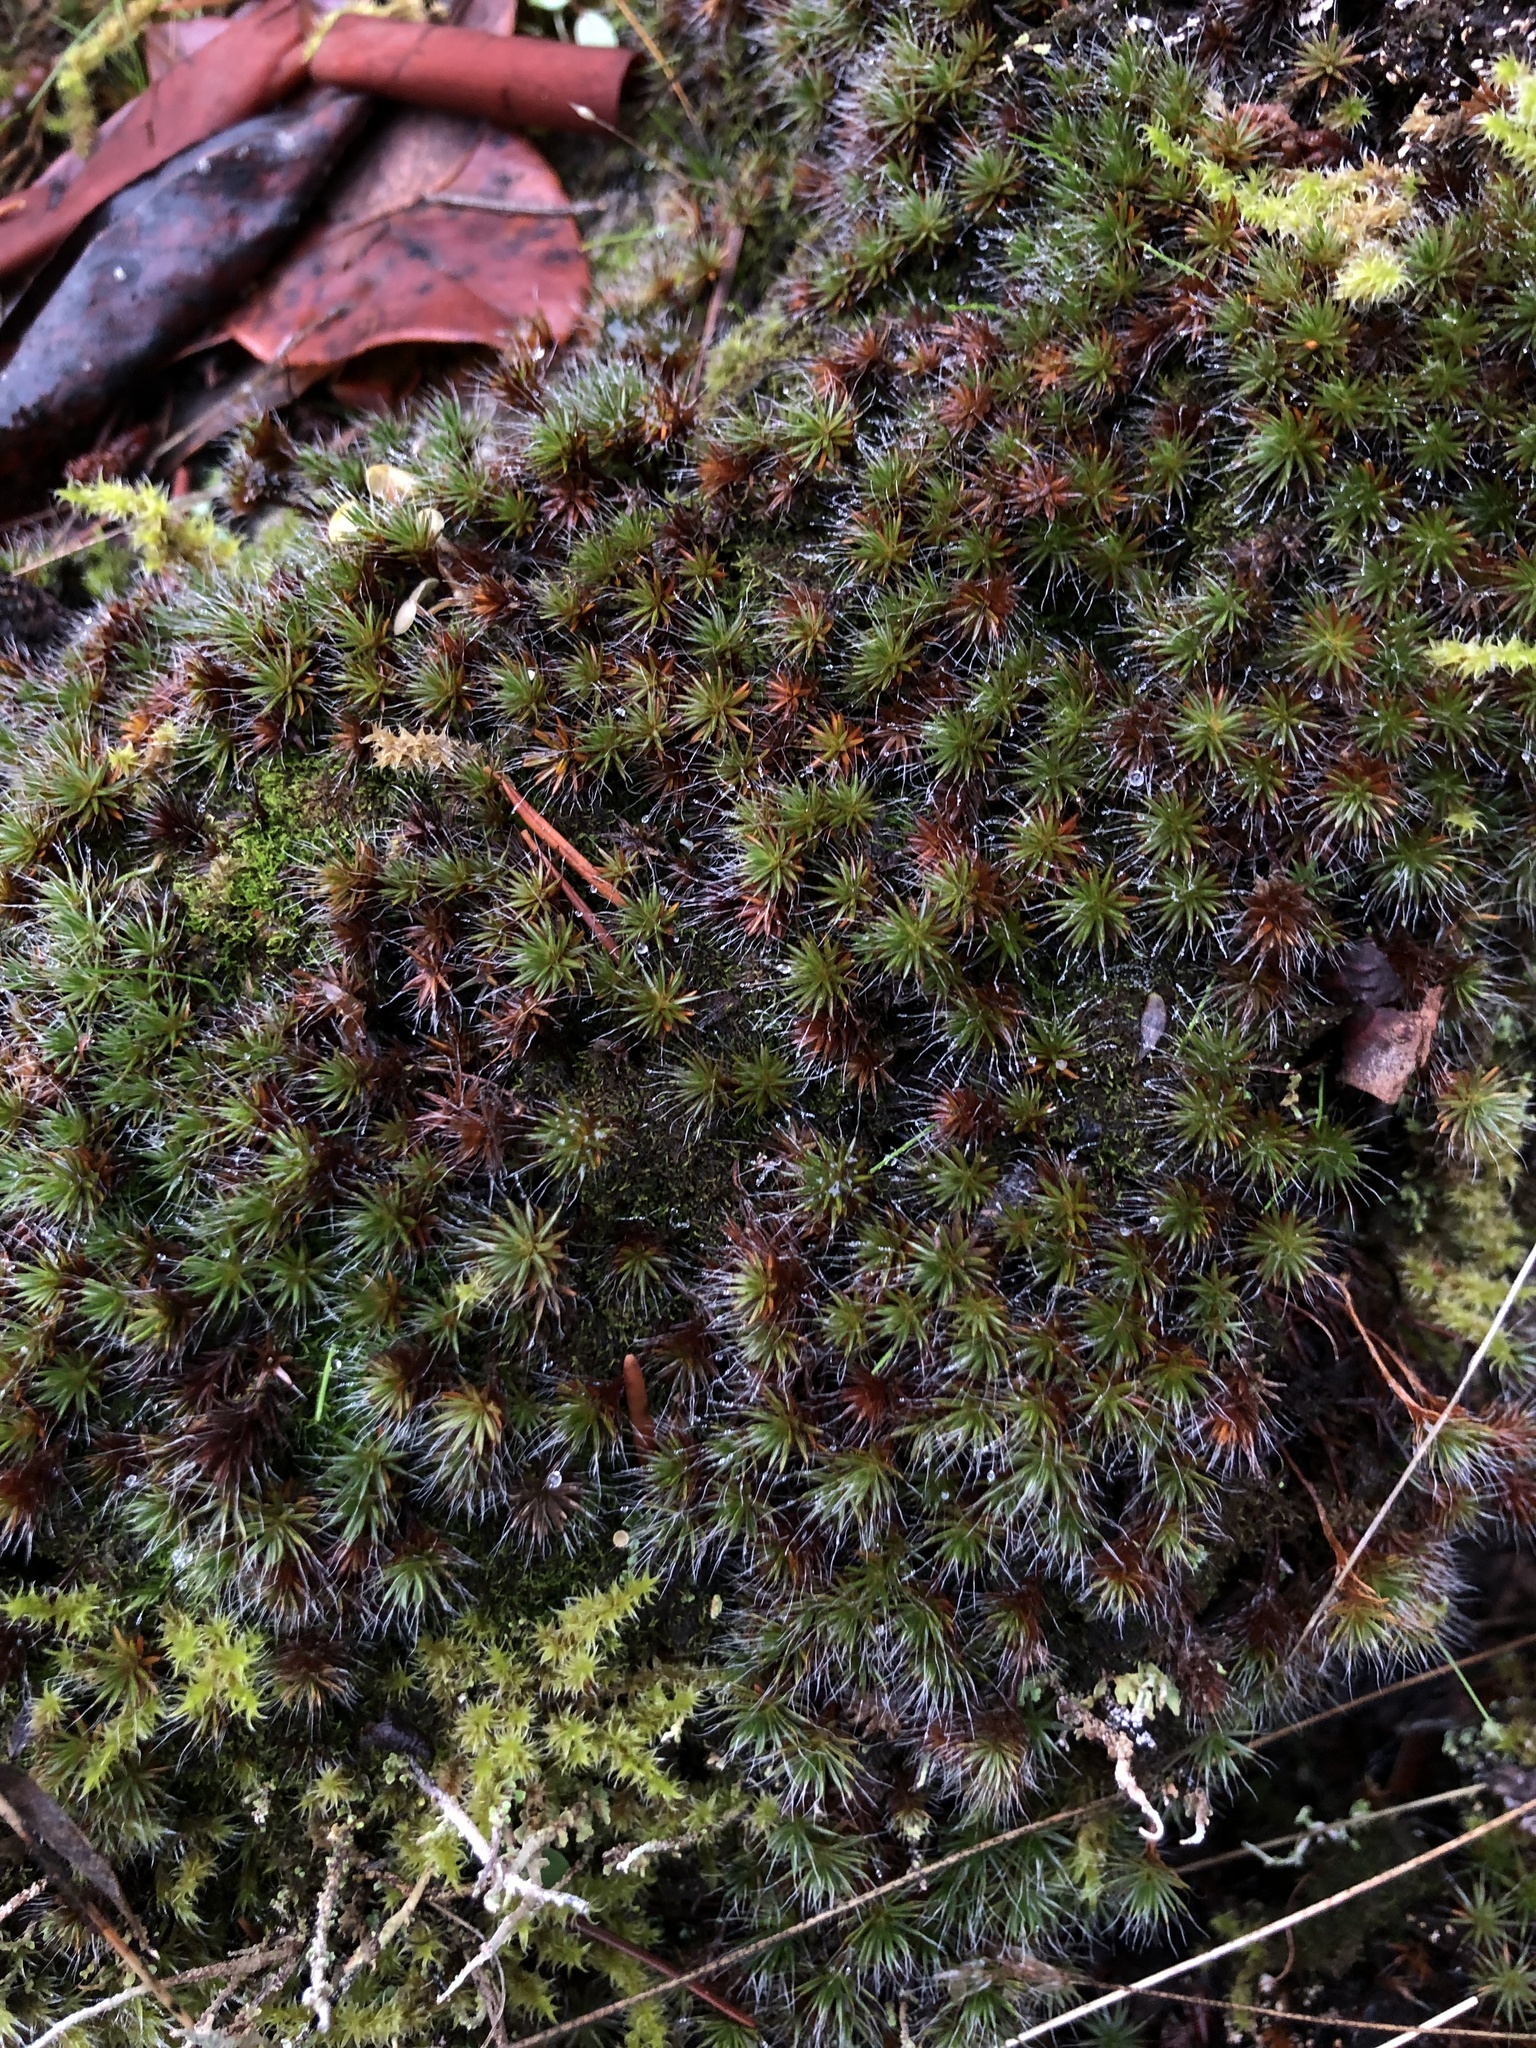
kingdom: Plantae
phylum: Bryophyta
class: Polytrichopsida
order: Polytrichales
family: Polytrichaceae
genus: Polytrichum
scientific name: Polytrichum piliferum
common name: Bristly haircap
